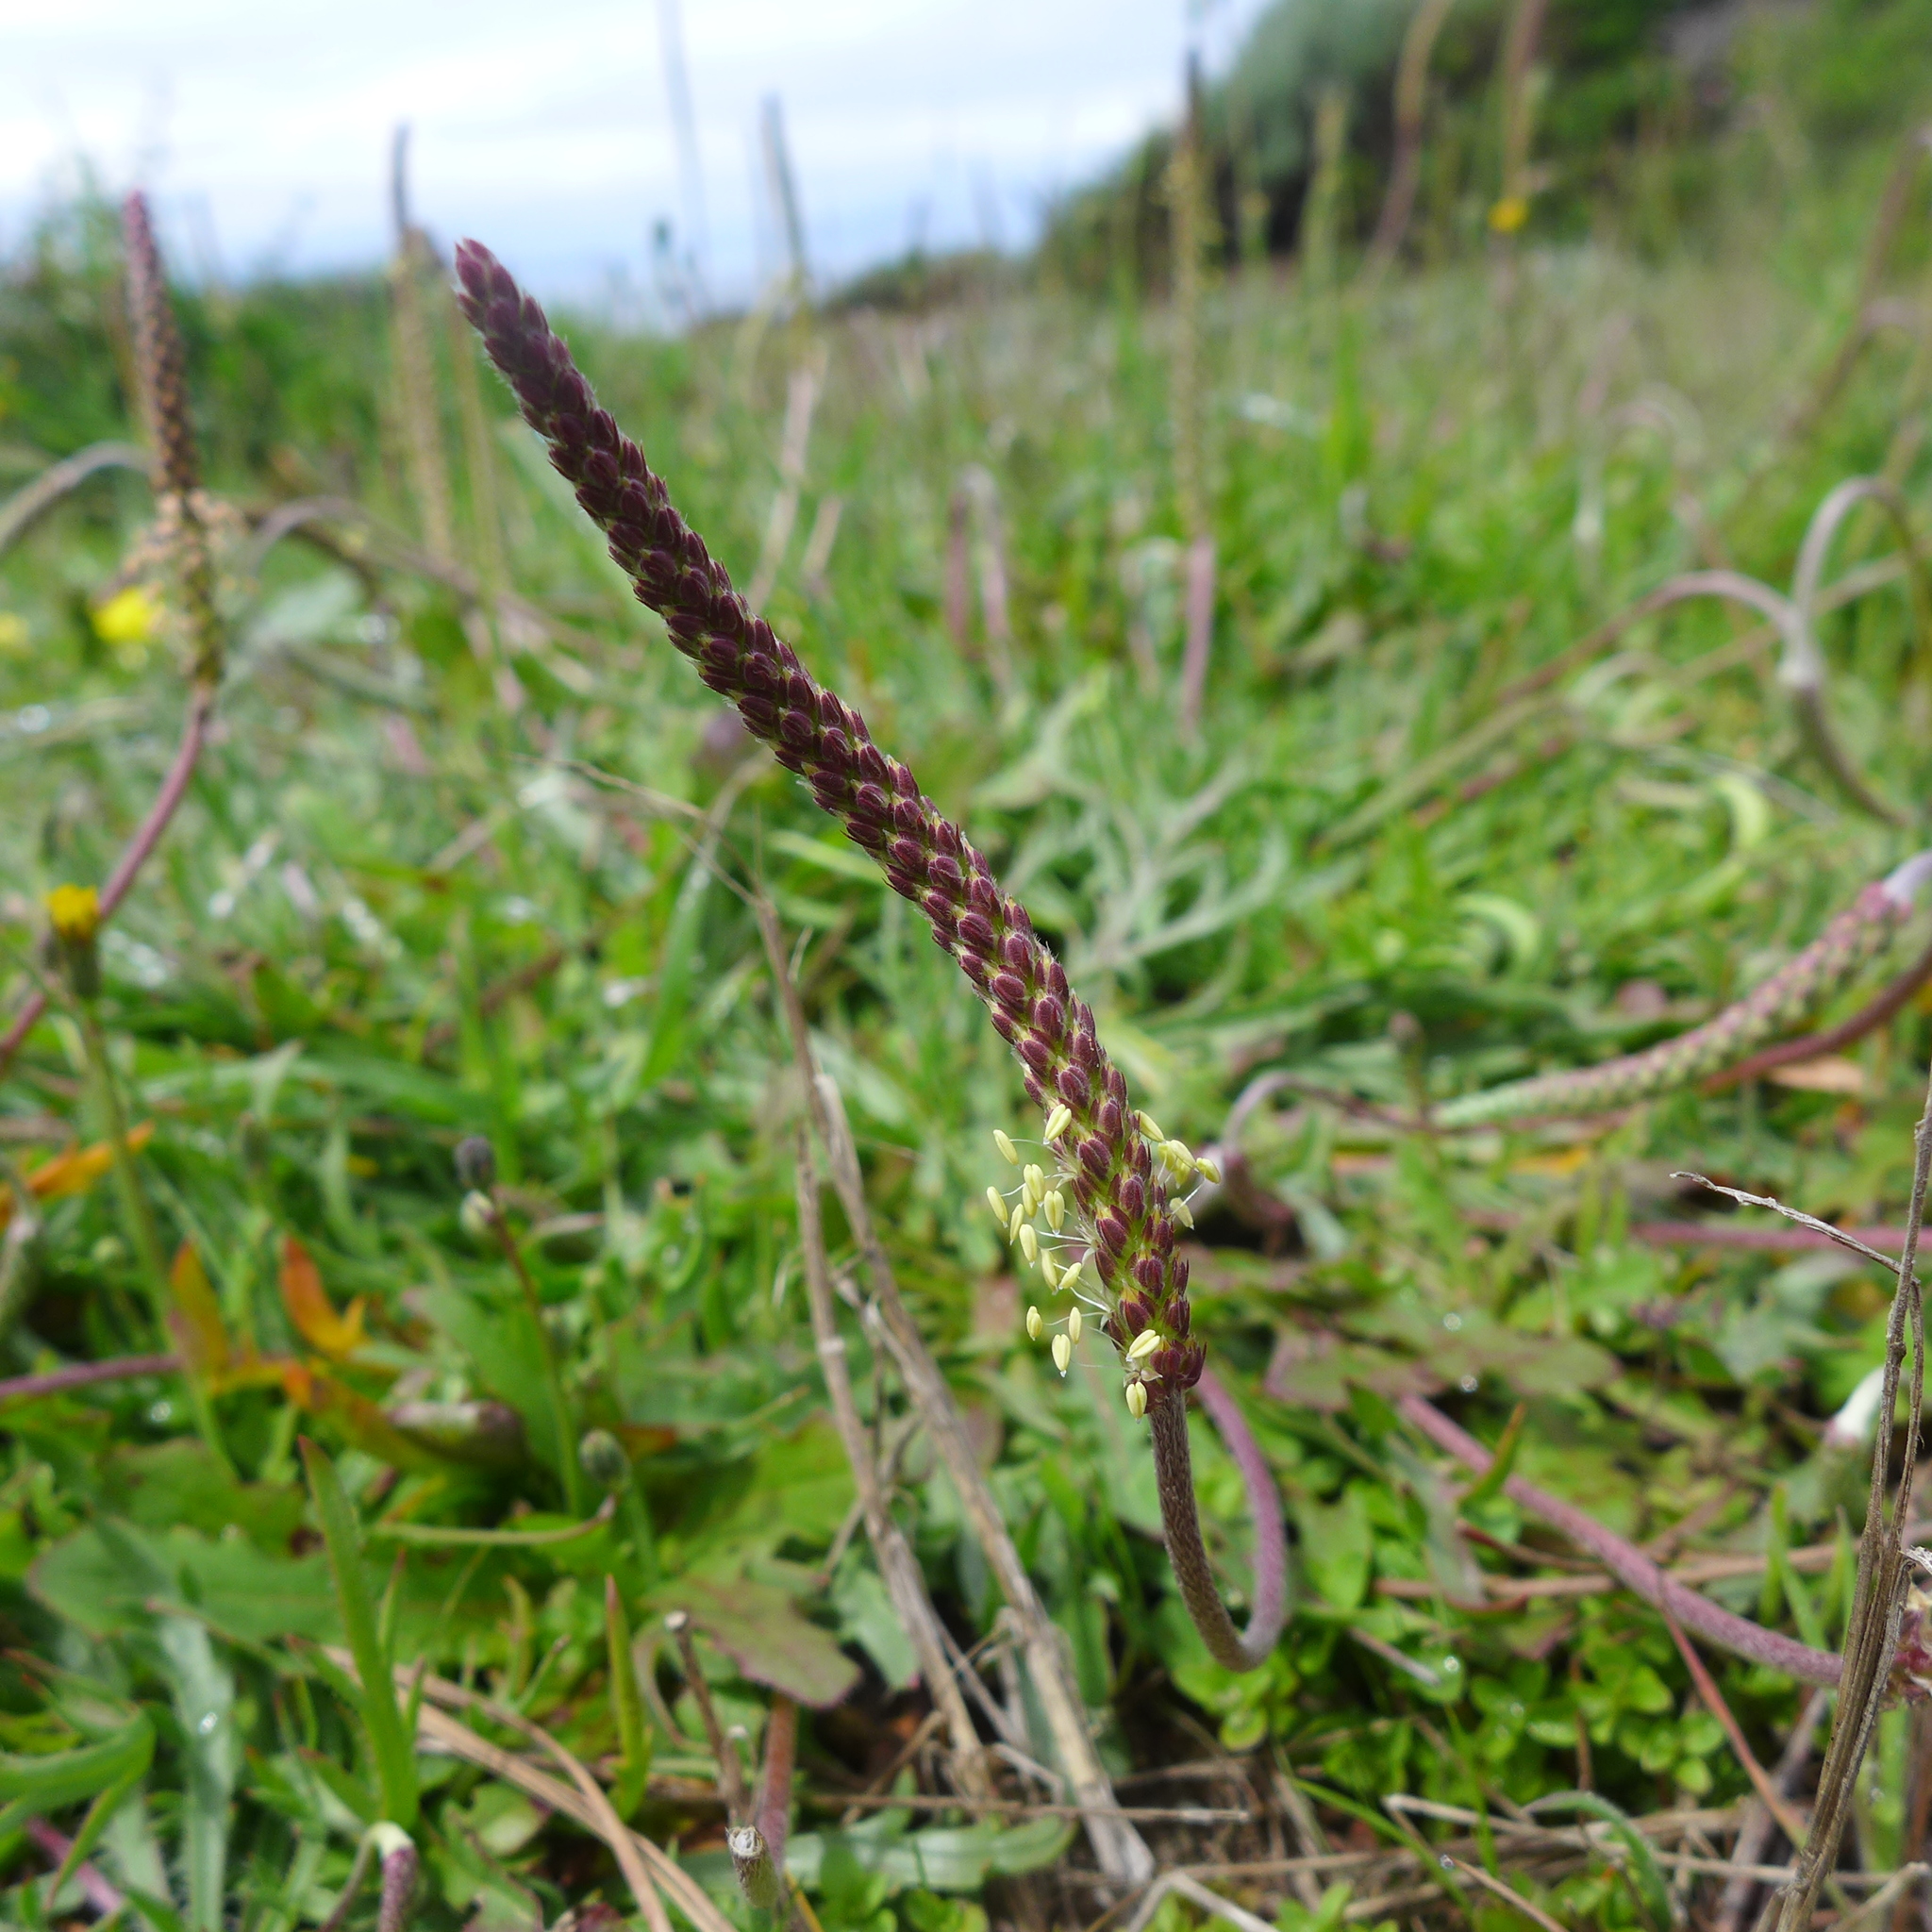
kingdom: Plantae
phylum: Tracheophyta
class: Magnoliopsida
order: Lamiales
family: Plantaginaceae
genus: Plantago
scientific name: Plantago coronopus
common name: Buck's-horn plantain
